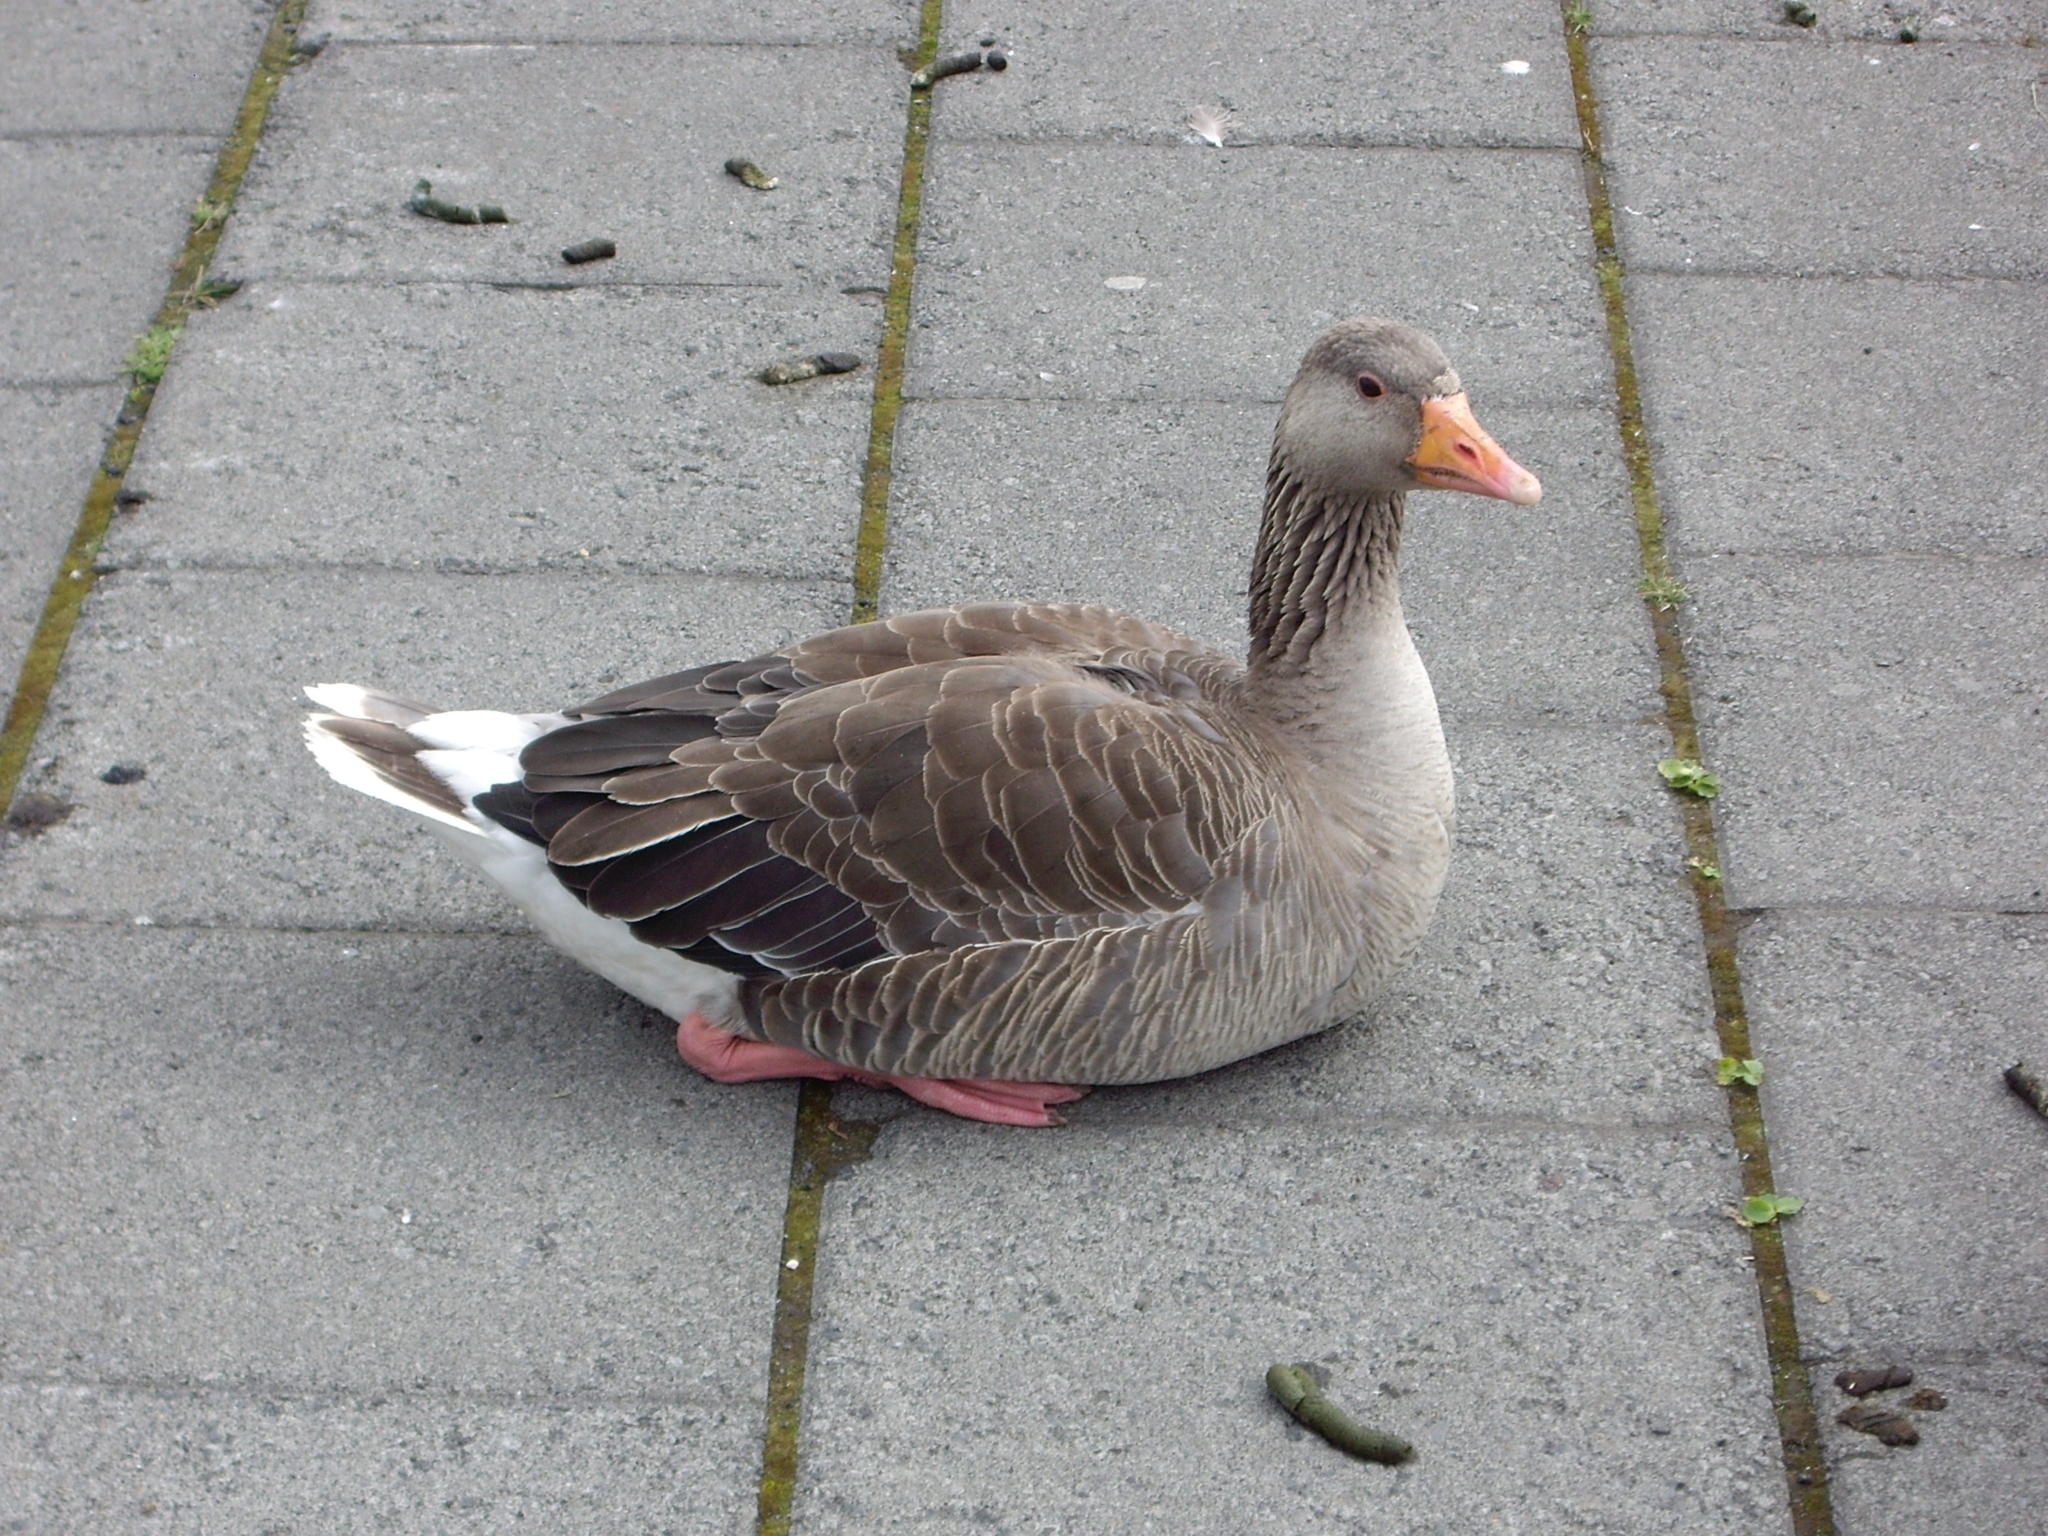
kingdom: Animalia
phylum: Chordata
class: Aves
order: Anseriformes
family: Anatidae
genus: Anser
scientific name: Anser anser
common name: Greylag goose
